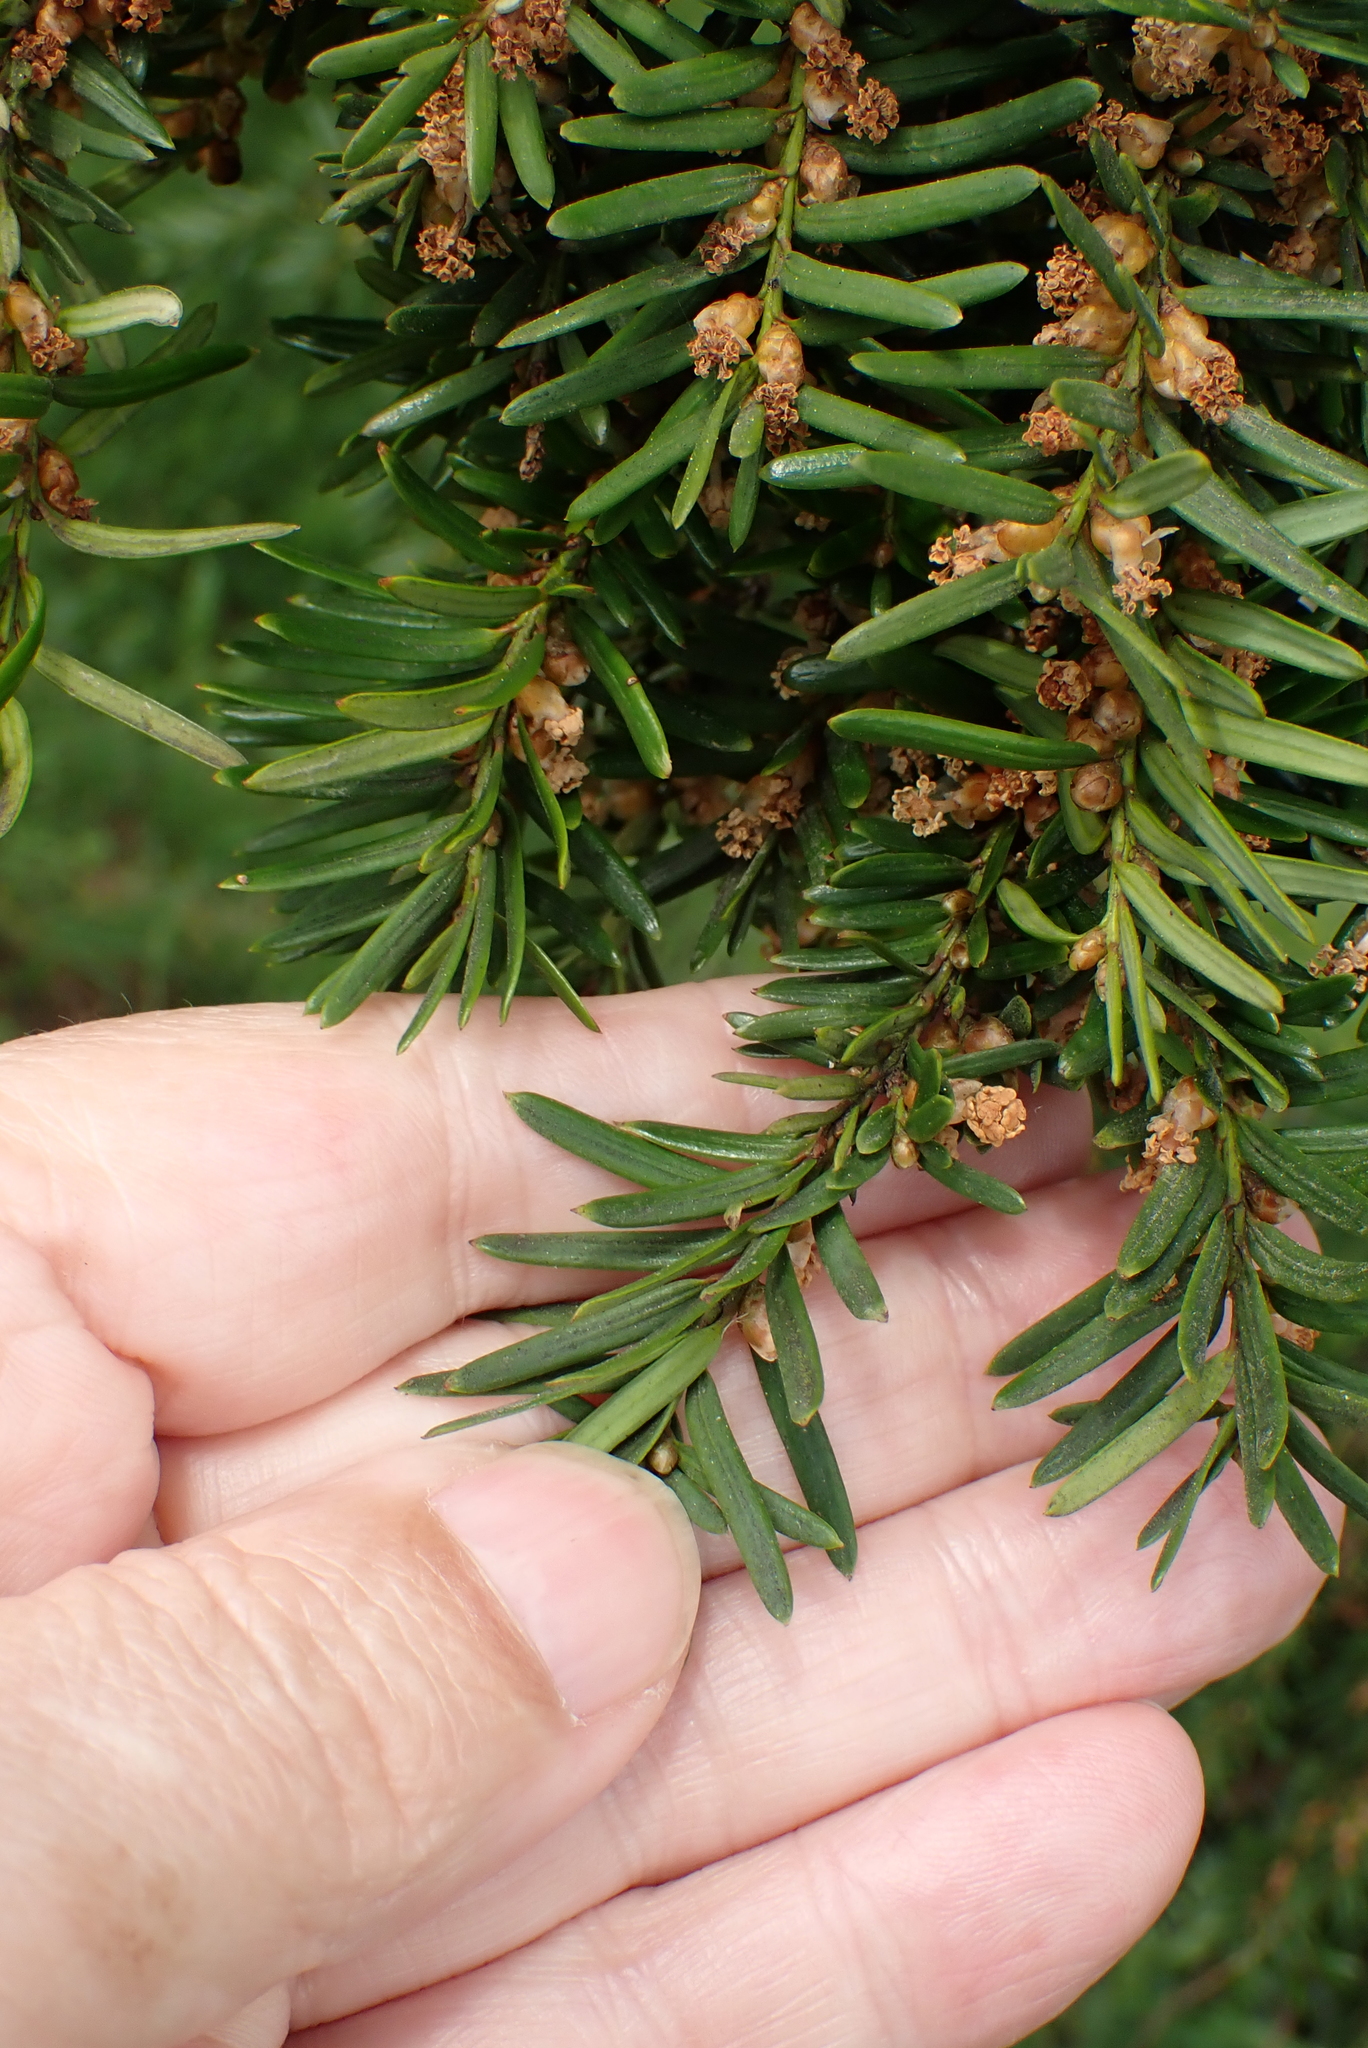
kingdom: Plantae
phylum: Tracheophyta
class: Pinopsida
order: Pinales
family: Taxaceae
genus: Taxus
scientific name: Taxus baccata
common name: Yew
